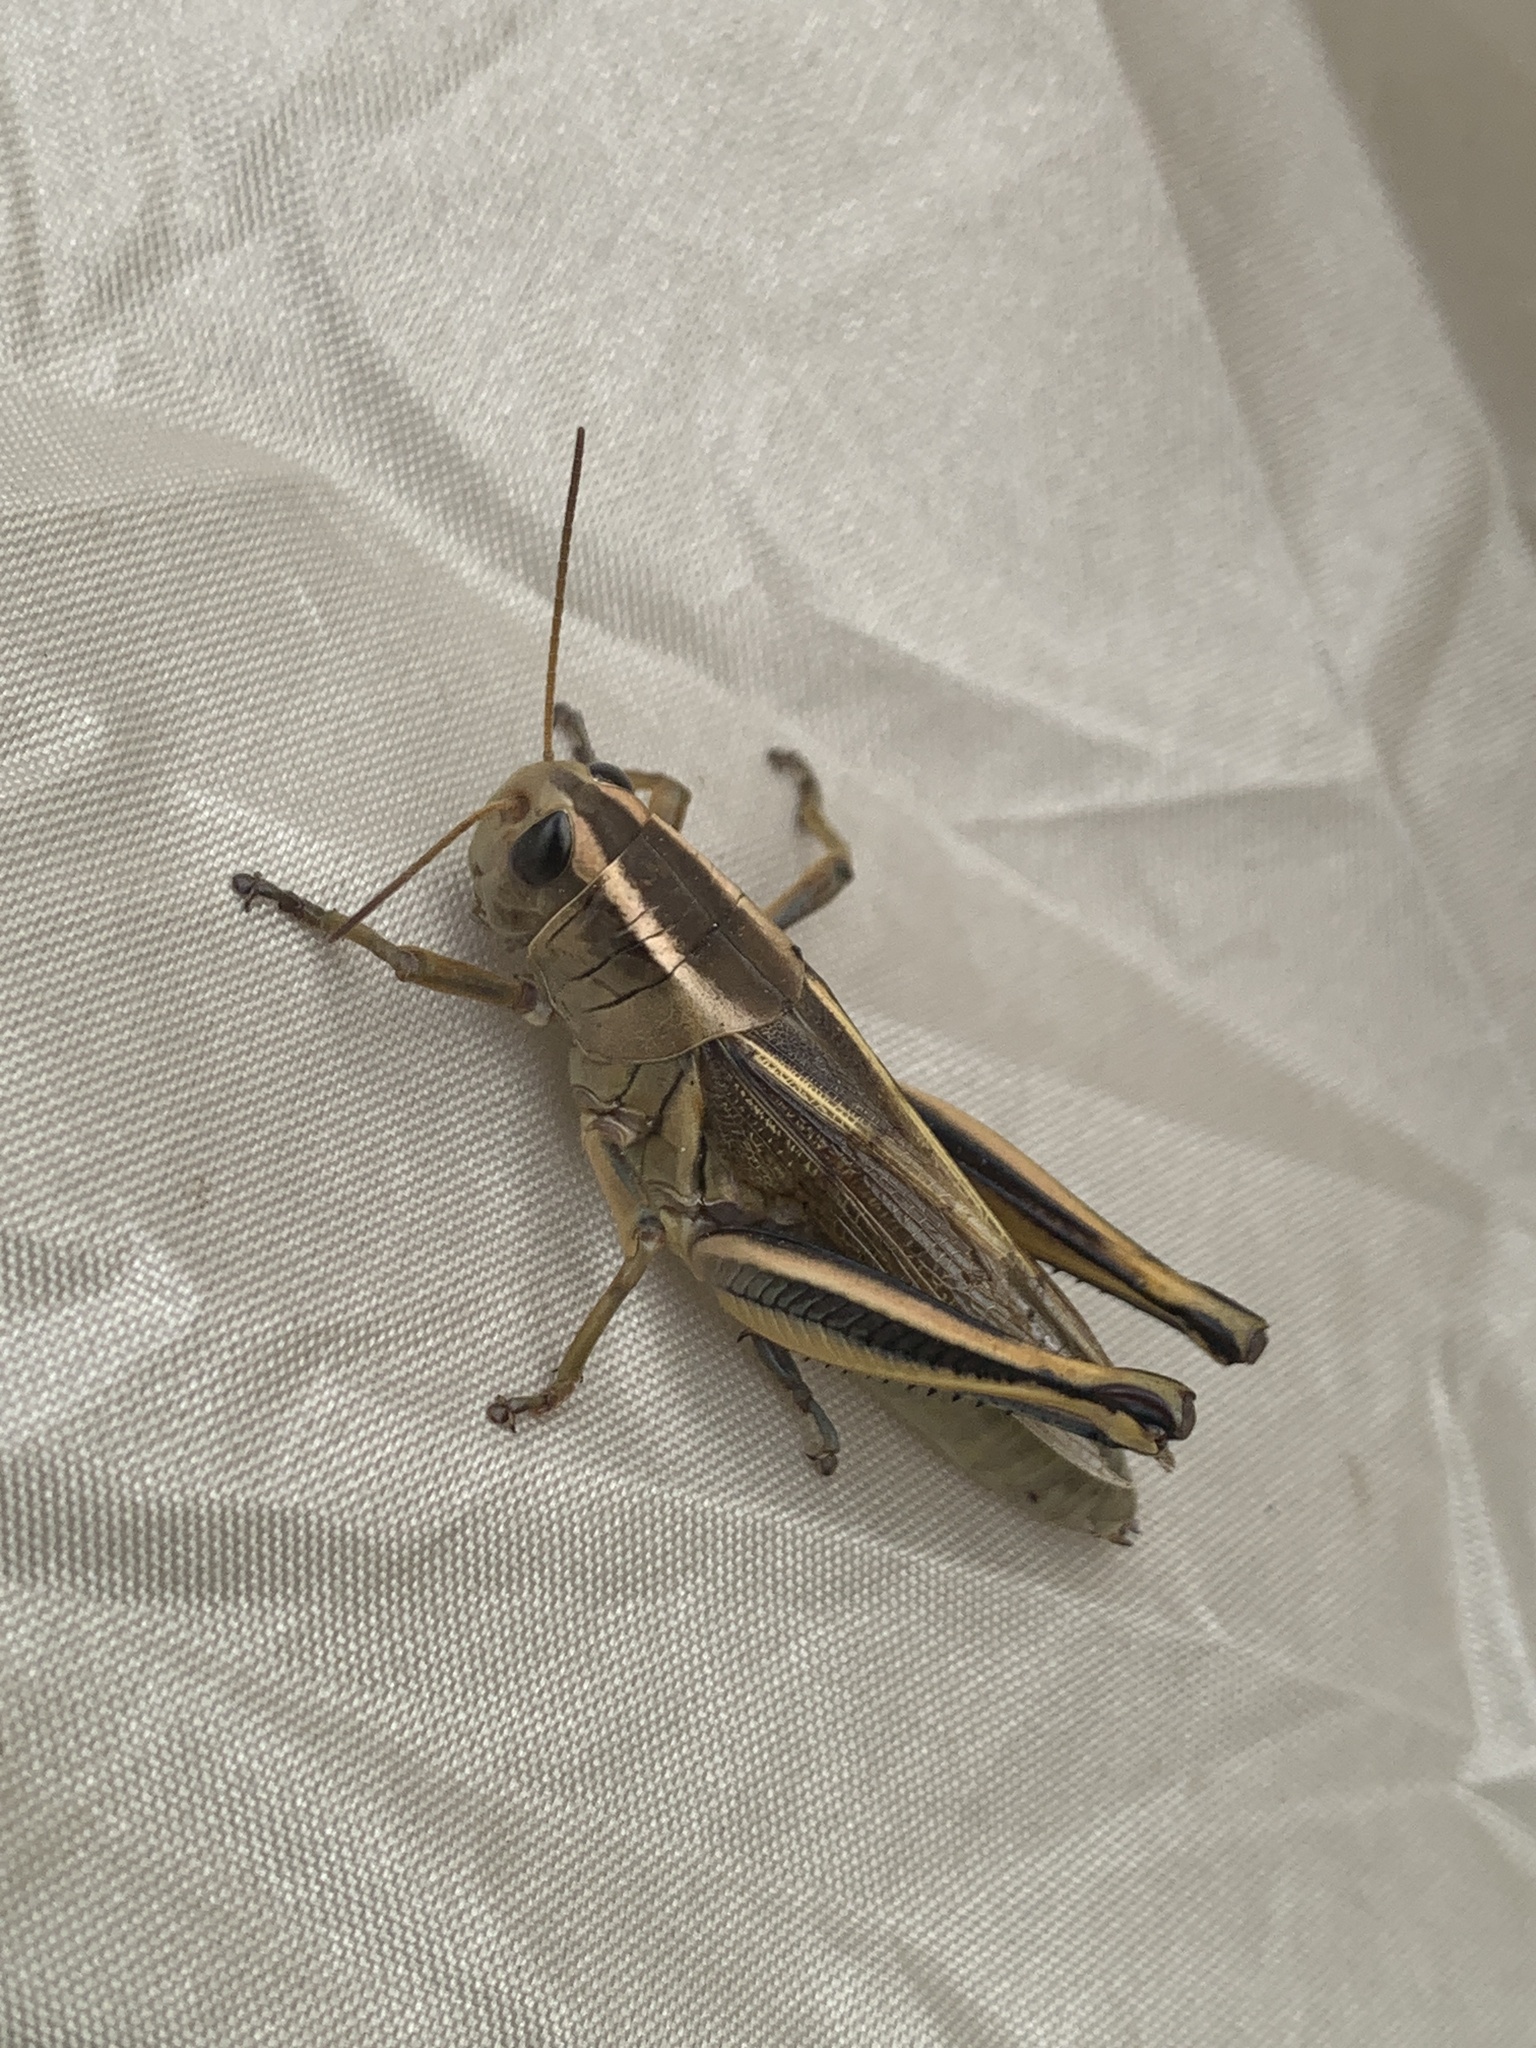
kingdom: Animalia
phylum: Arthropoda
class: Insecta
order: Orthoptera
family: Acrididae
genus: Melanoplus
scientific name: Melanoplus bivittatus
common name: Two-striped grasshopper
